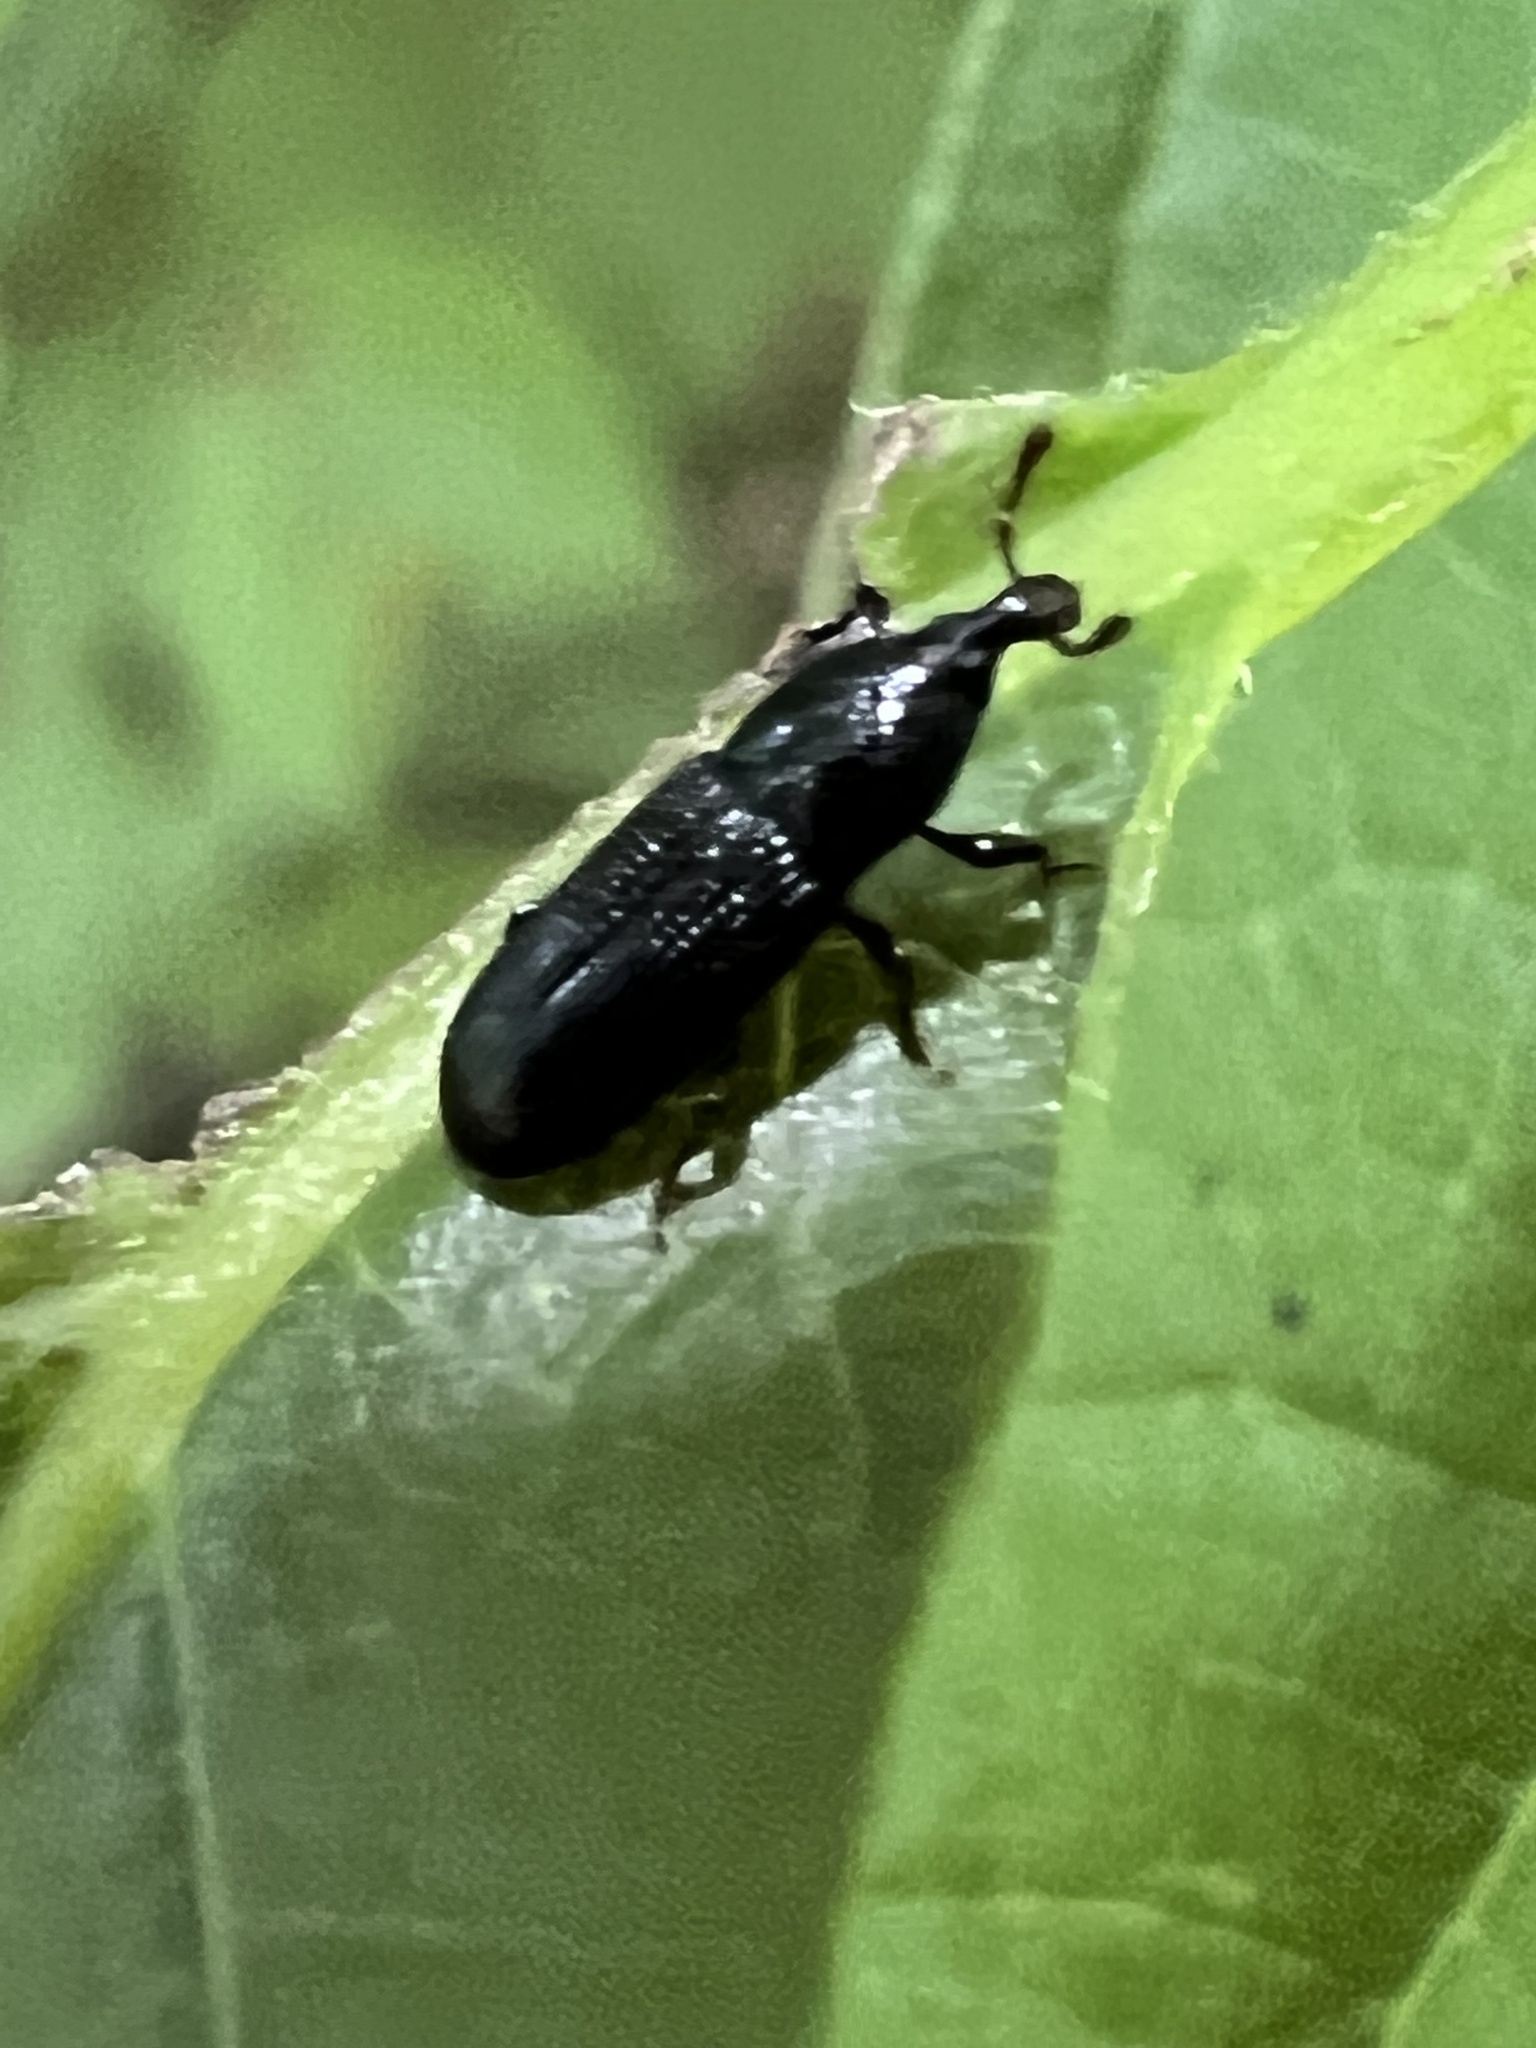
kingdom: Animalia
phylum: Arthropoda
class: Insecta
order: Coleoptera
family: Curculionidae
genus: Cossonus
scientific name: Cossonus impressifrons
